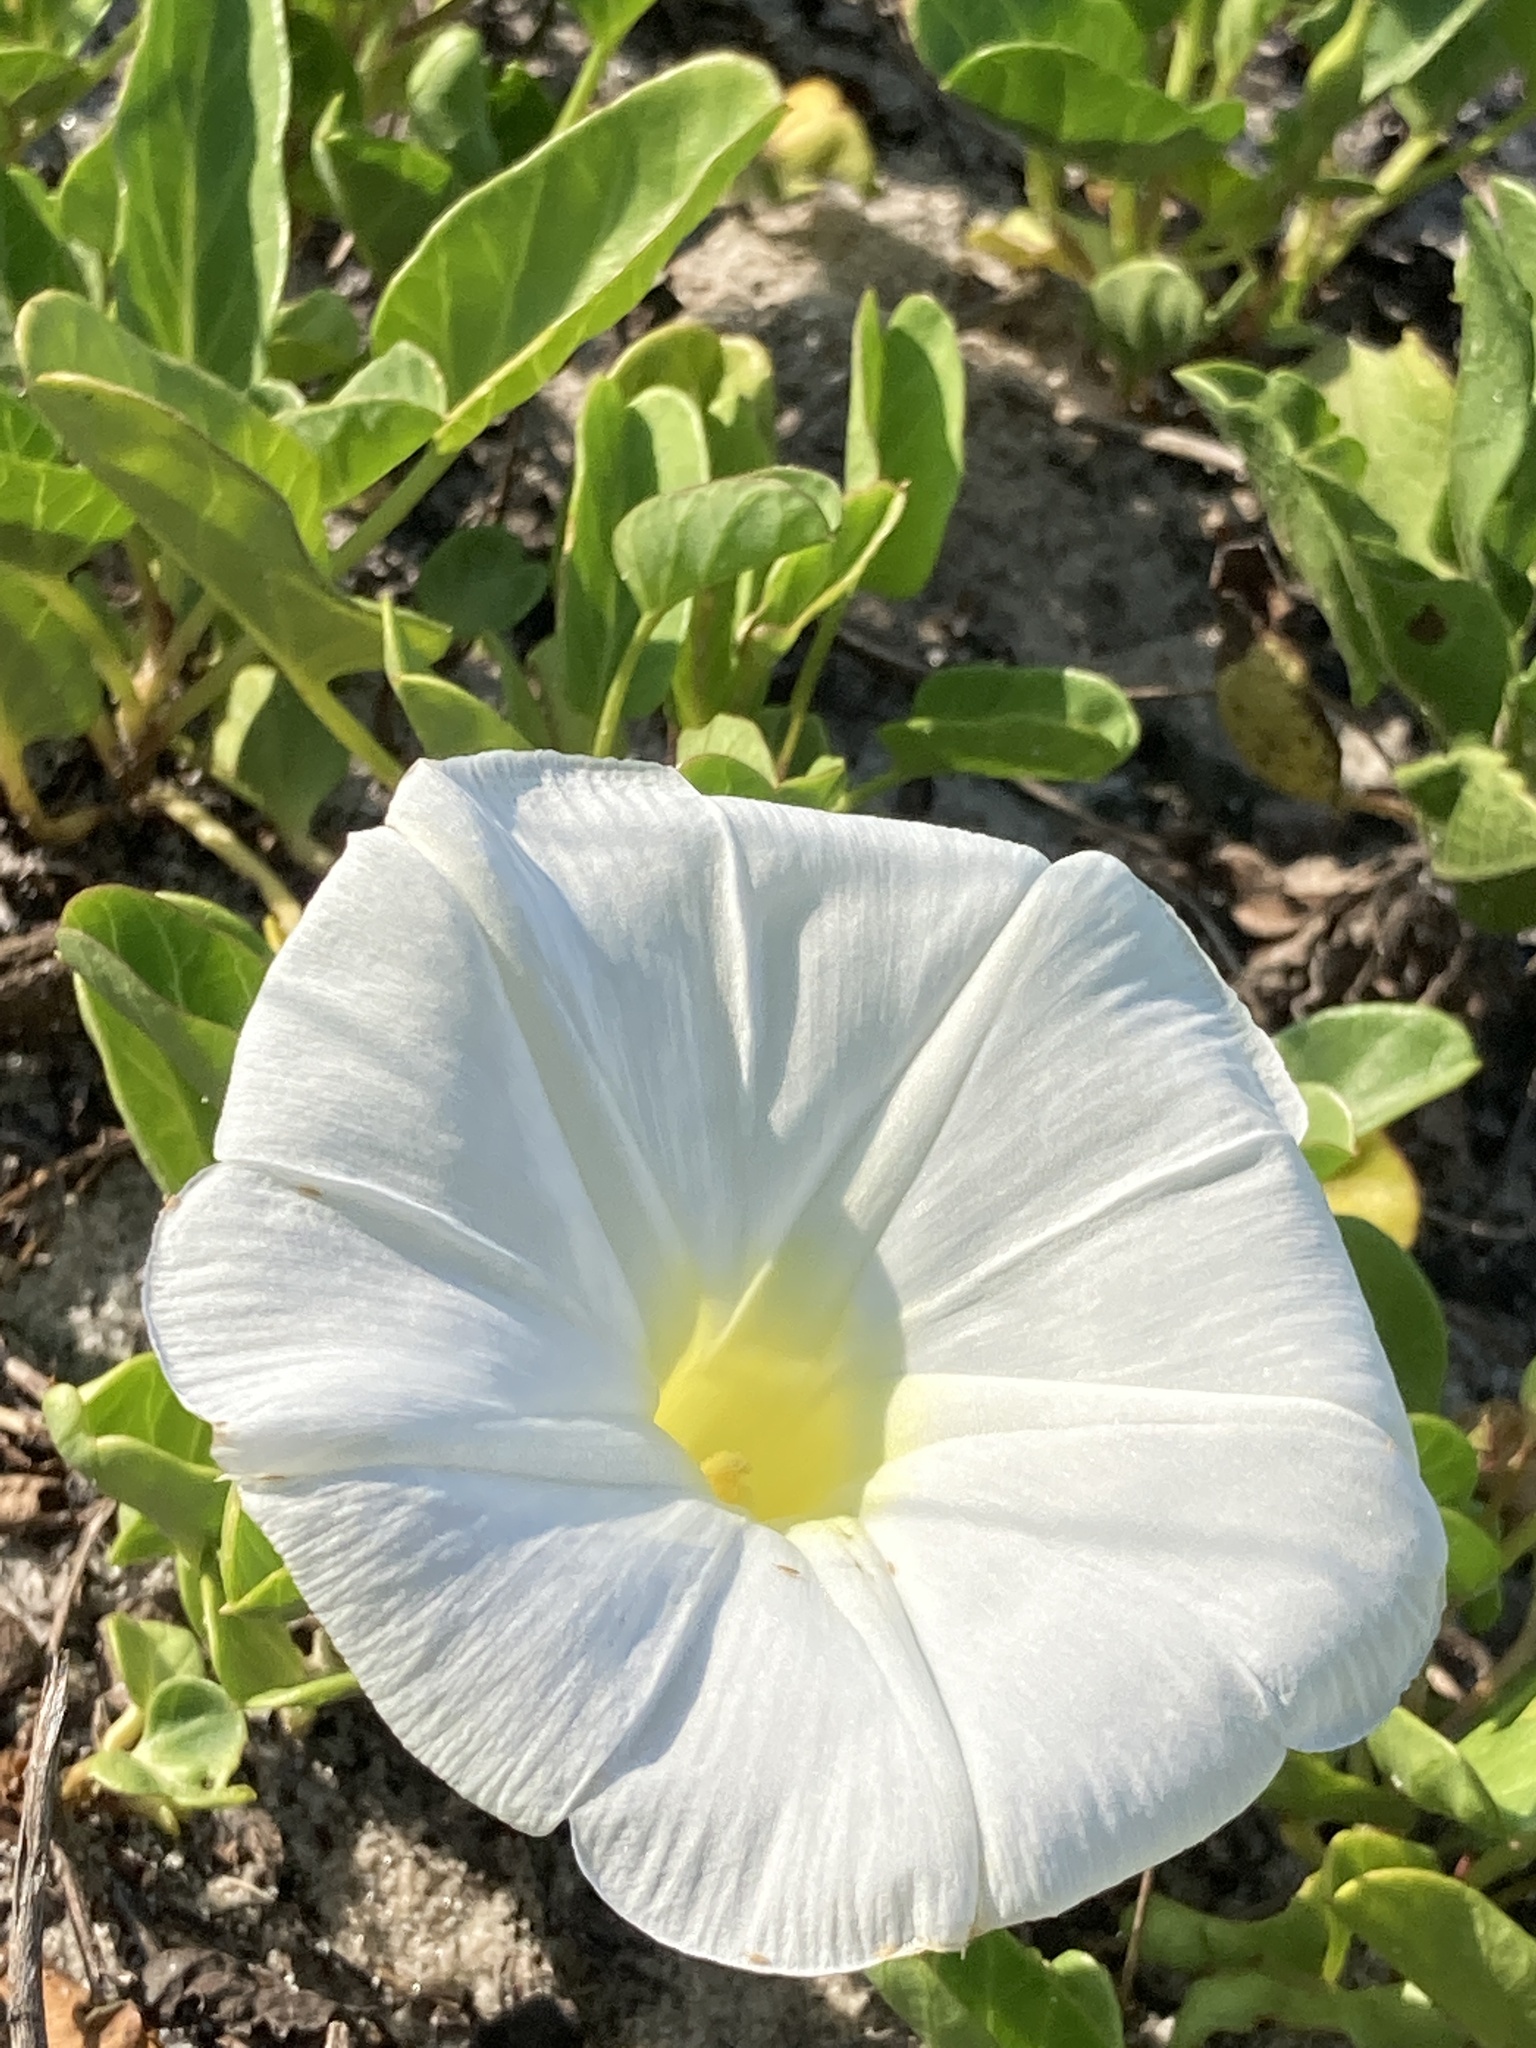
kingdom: Plantae
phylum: Tracheophyta
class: Magnoliopsida
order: Solanales
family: Convolvulaceae
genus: Ipomoea
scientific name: Ipomoea imperati
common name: Fiddle-leaf morning-glory
